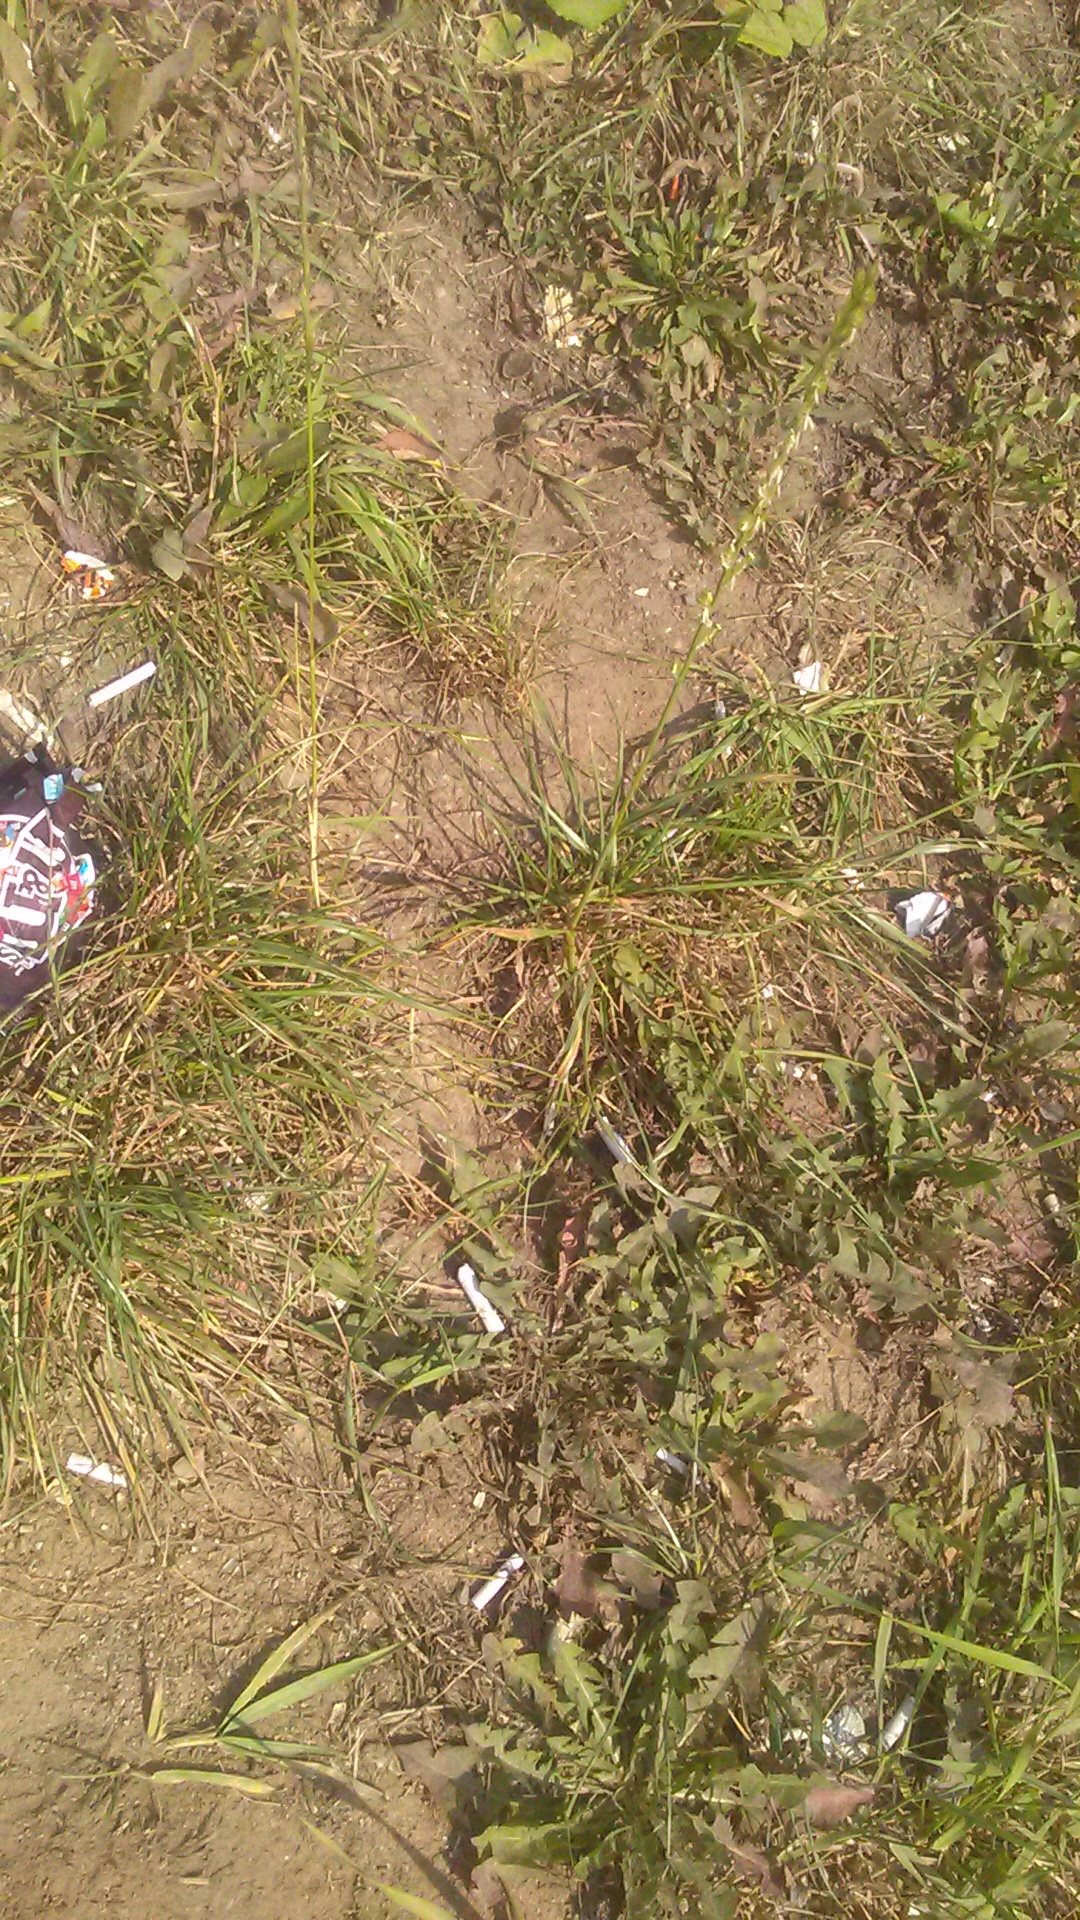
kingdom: Plantae
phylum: Tracheophyta
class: Liliopsida
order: Poales
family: Poaceae
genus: Lolium
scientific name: Lolium perenne
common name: Perennial ryegrass
